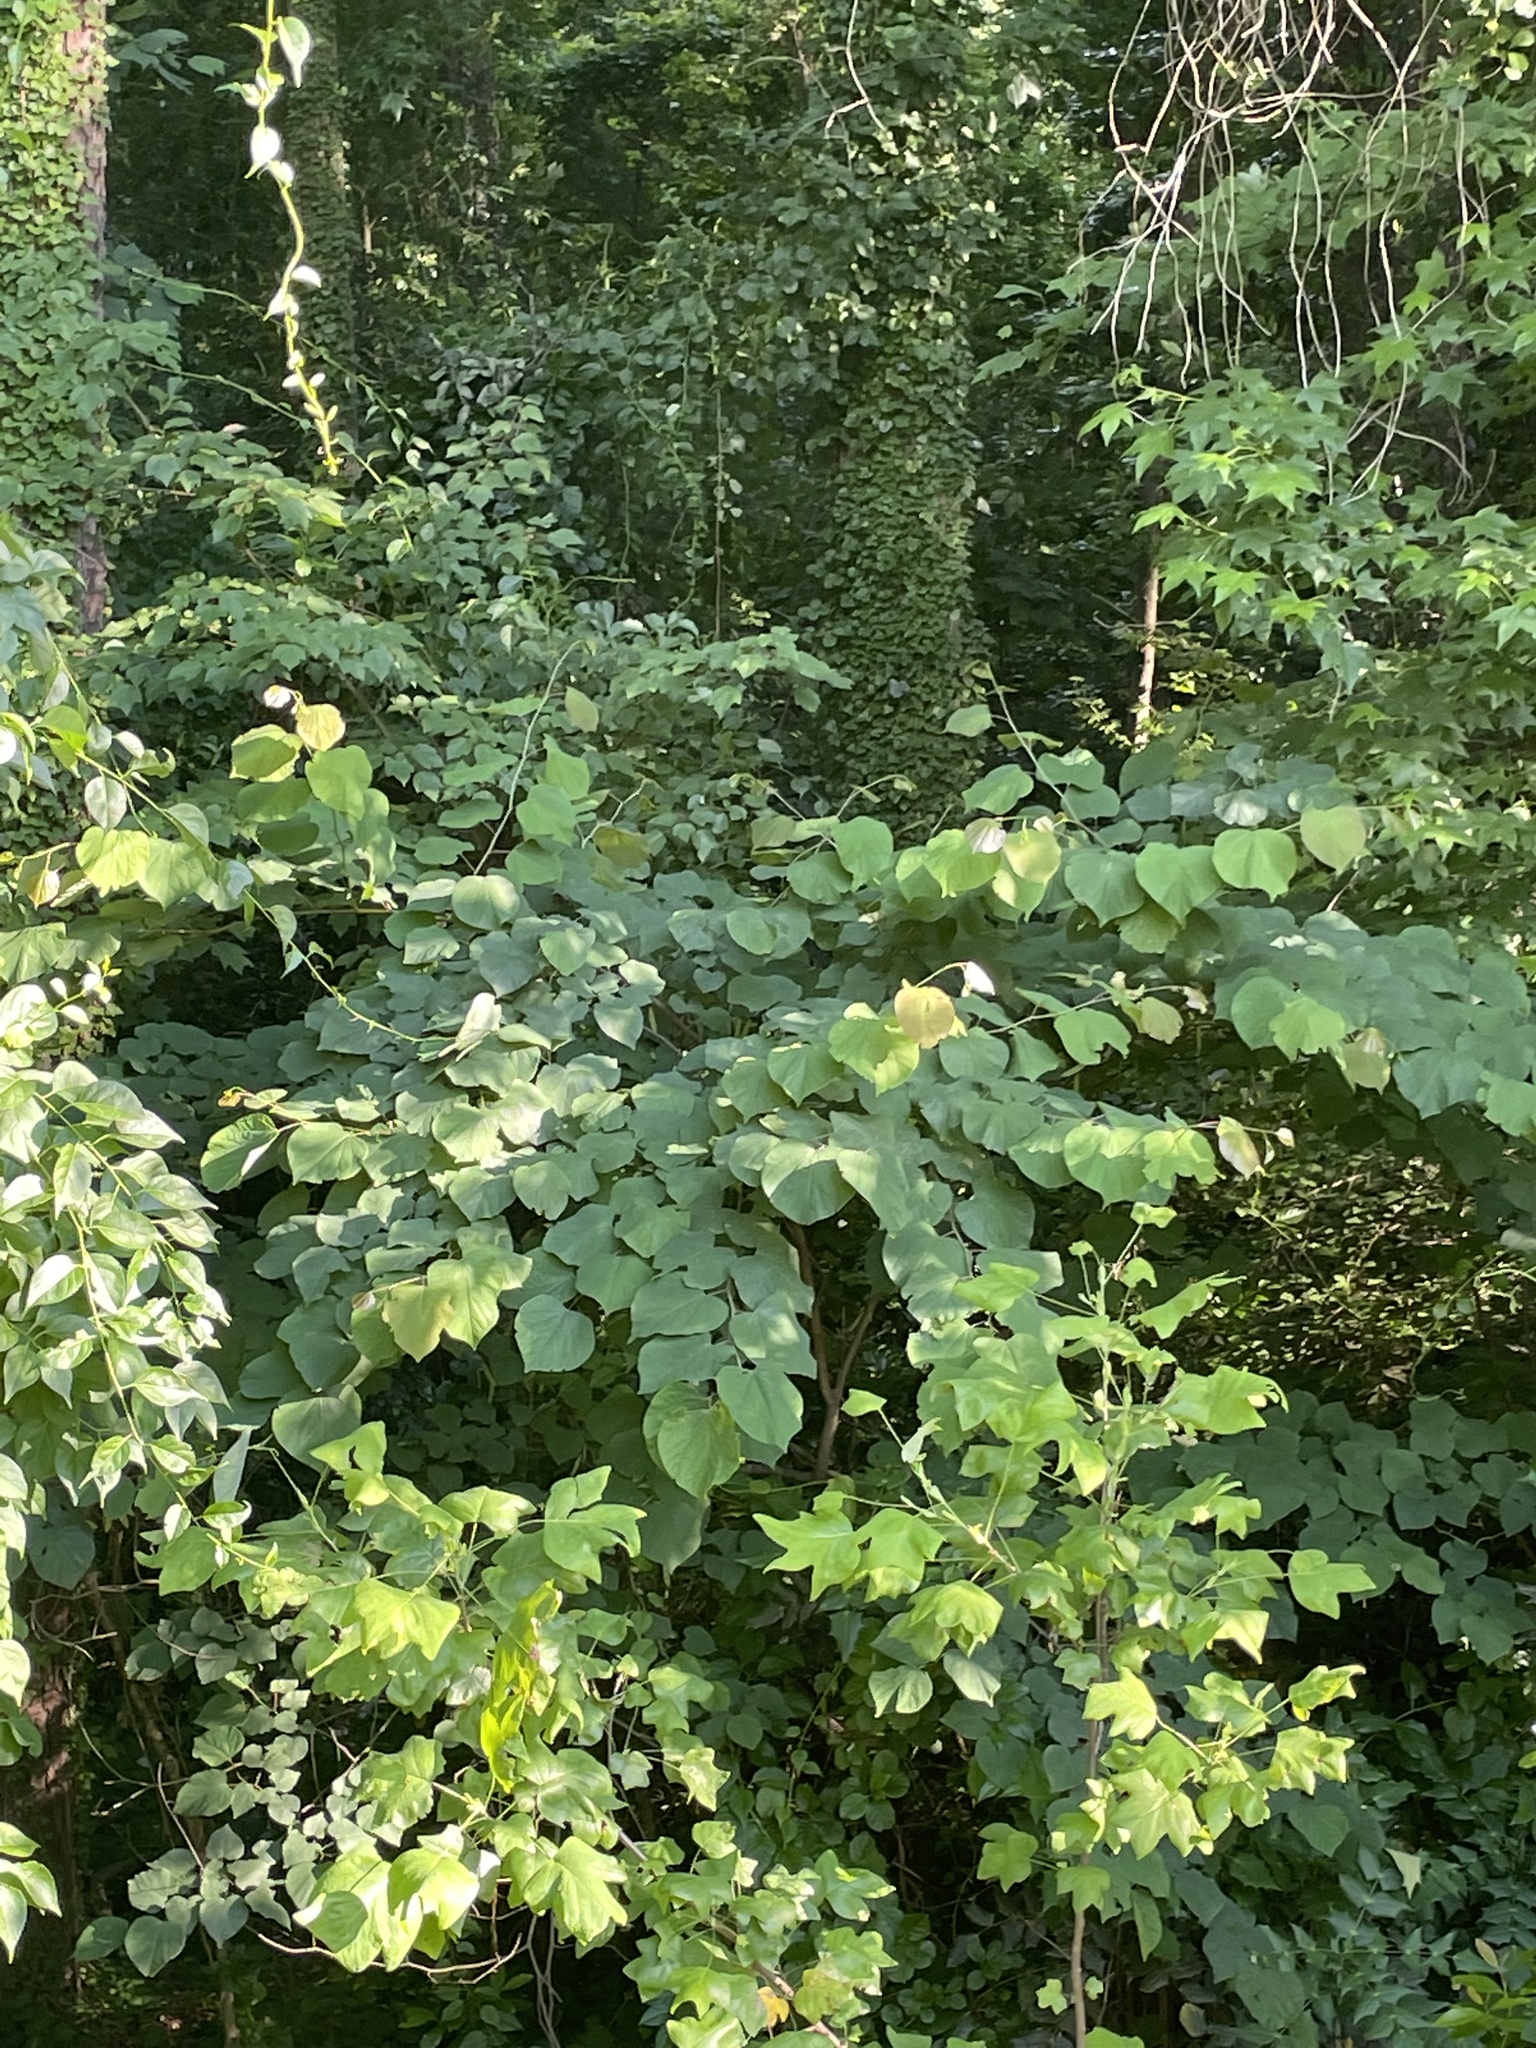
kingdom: Plantae
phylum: Tracheophyta
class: Magnoliopsida
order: Fabales
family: Fabaceae
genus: Cercis
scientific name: Cercis canadensis
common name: Eastern redbud
